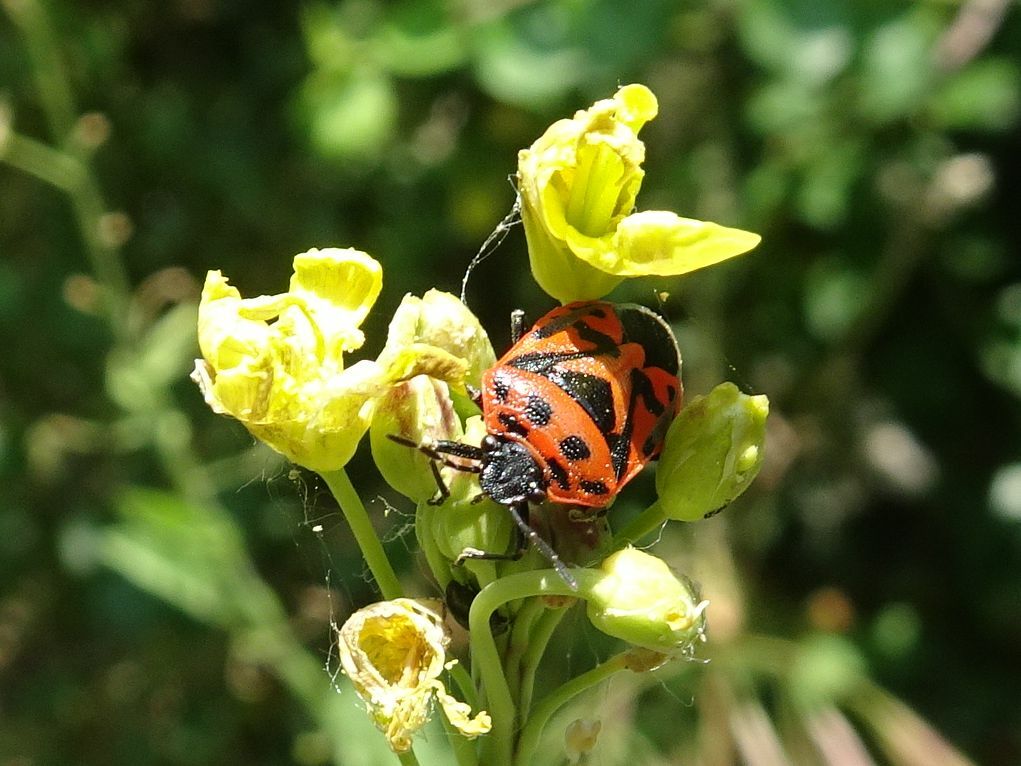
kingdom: Animalia
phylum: Arthropoda
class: Insecta
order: Hemiptera
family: Pentatomidae
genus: Eurydema
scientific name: Eurydema ornata
